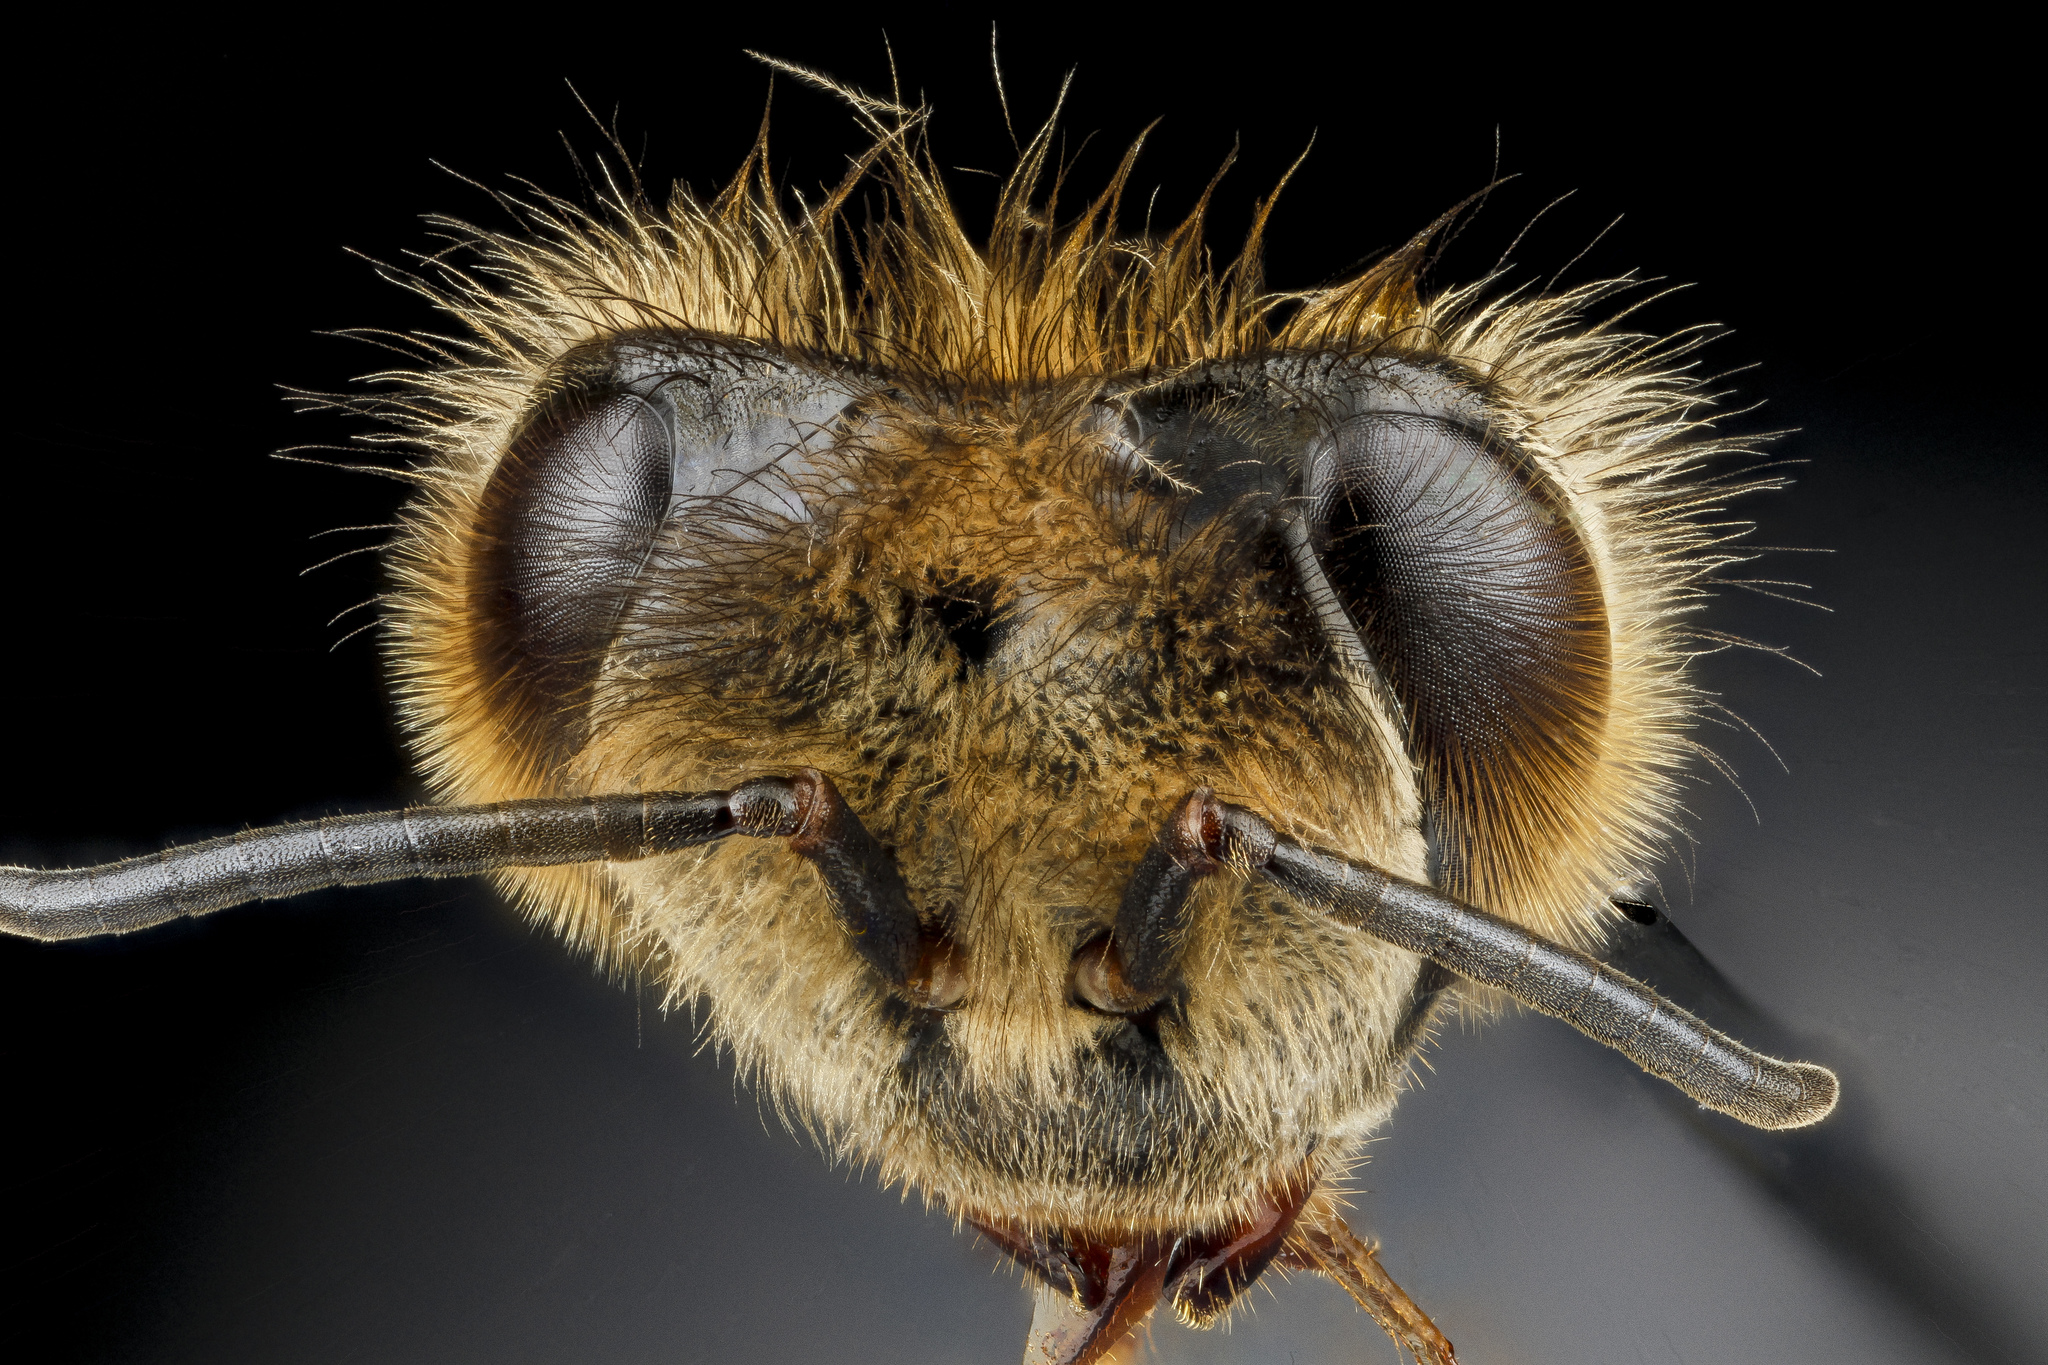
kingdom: Animalia
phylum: Arthropoda
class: Insecta
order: Hymenoptera
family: Apidae
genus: Apis
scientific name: Apis mellifera
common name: Honey bee
